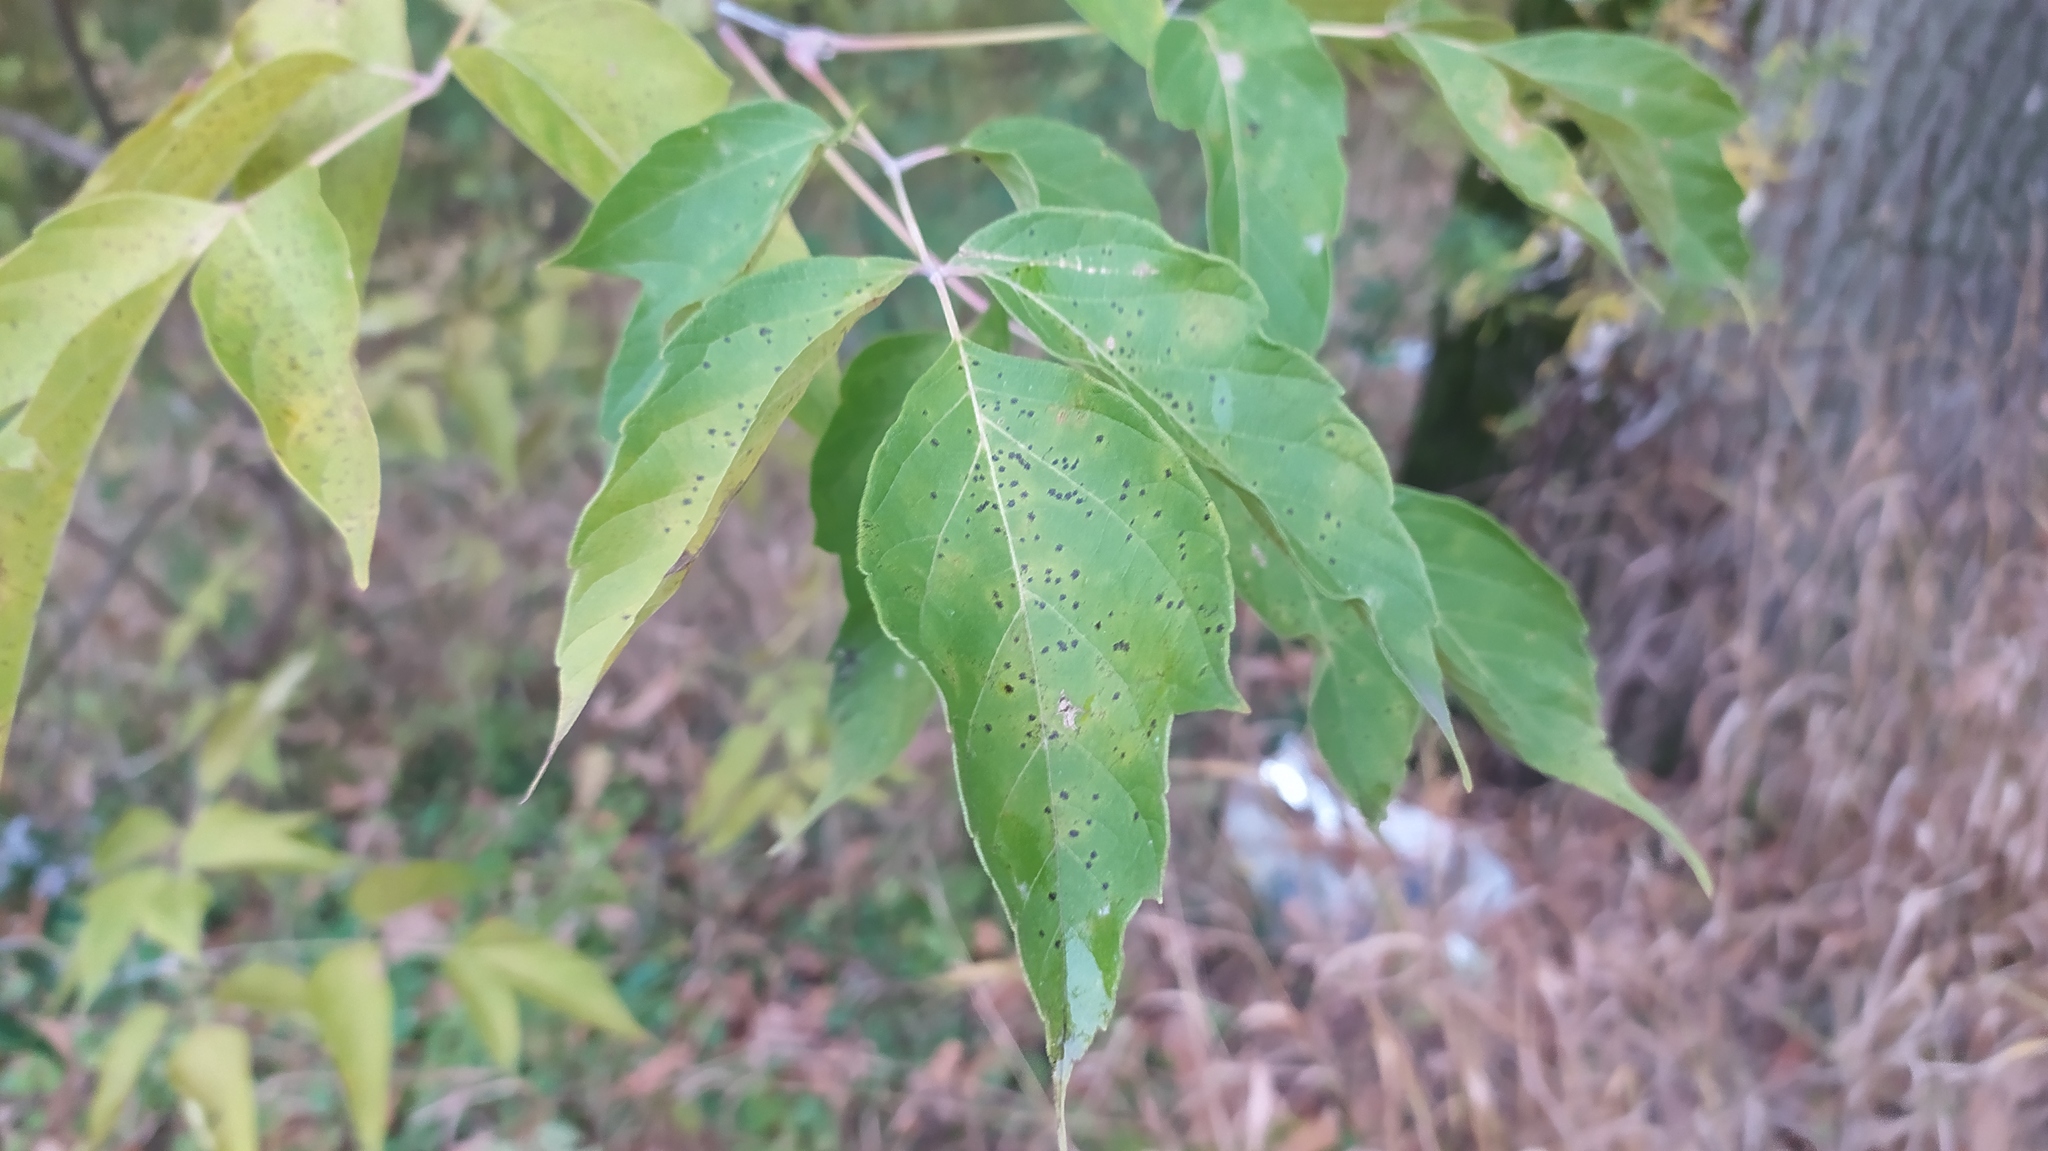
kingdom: Plantae
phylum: Tracheophyta
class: Magnoliopsida
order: Sapindales
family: Sapindaceae
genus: Acer
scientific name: Acer negundo
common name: Ashleaf maple
